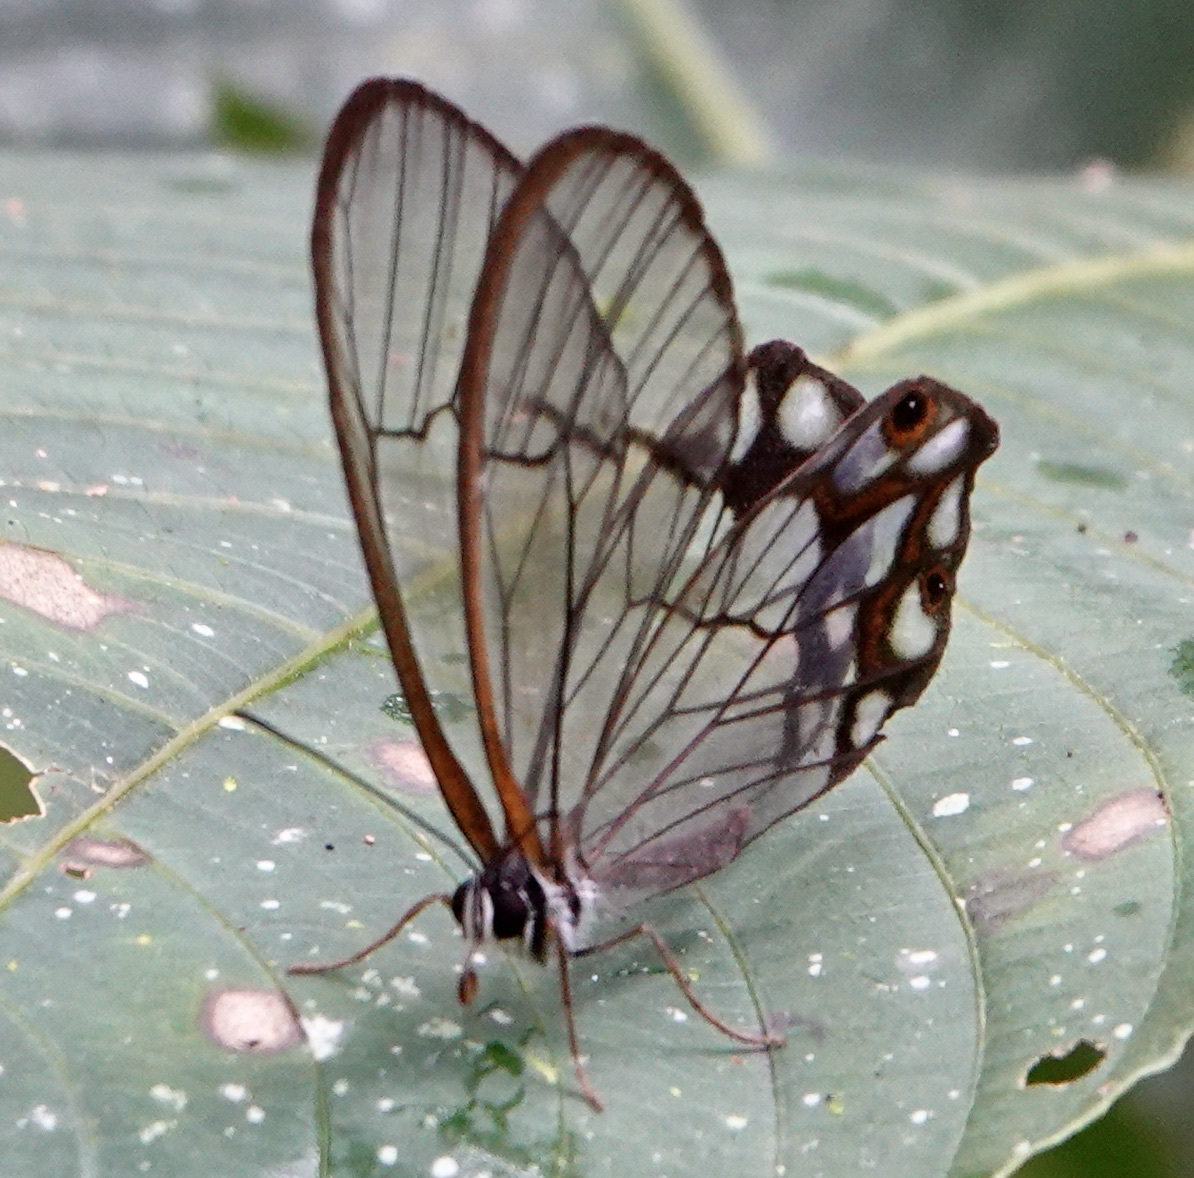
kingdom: Animalia
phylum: Arthropoda
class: Insecta
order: Lepidoptera
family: Nymphalidae
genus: Pseudohaetera
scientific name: Pseudohaetera hypaesia
